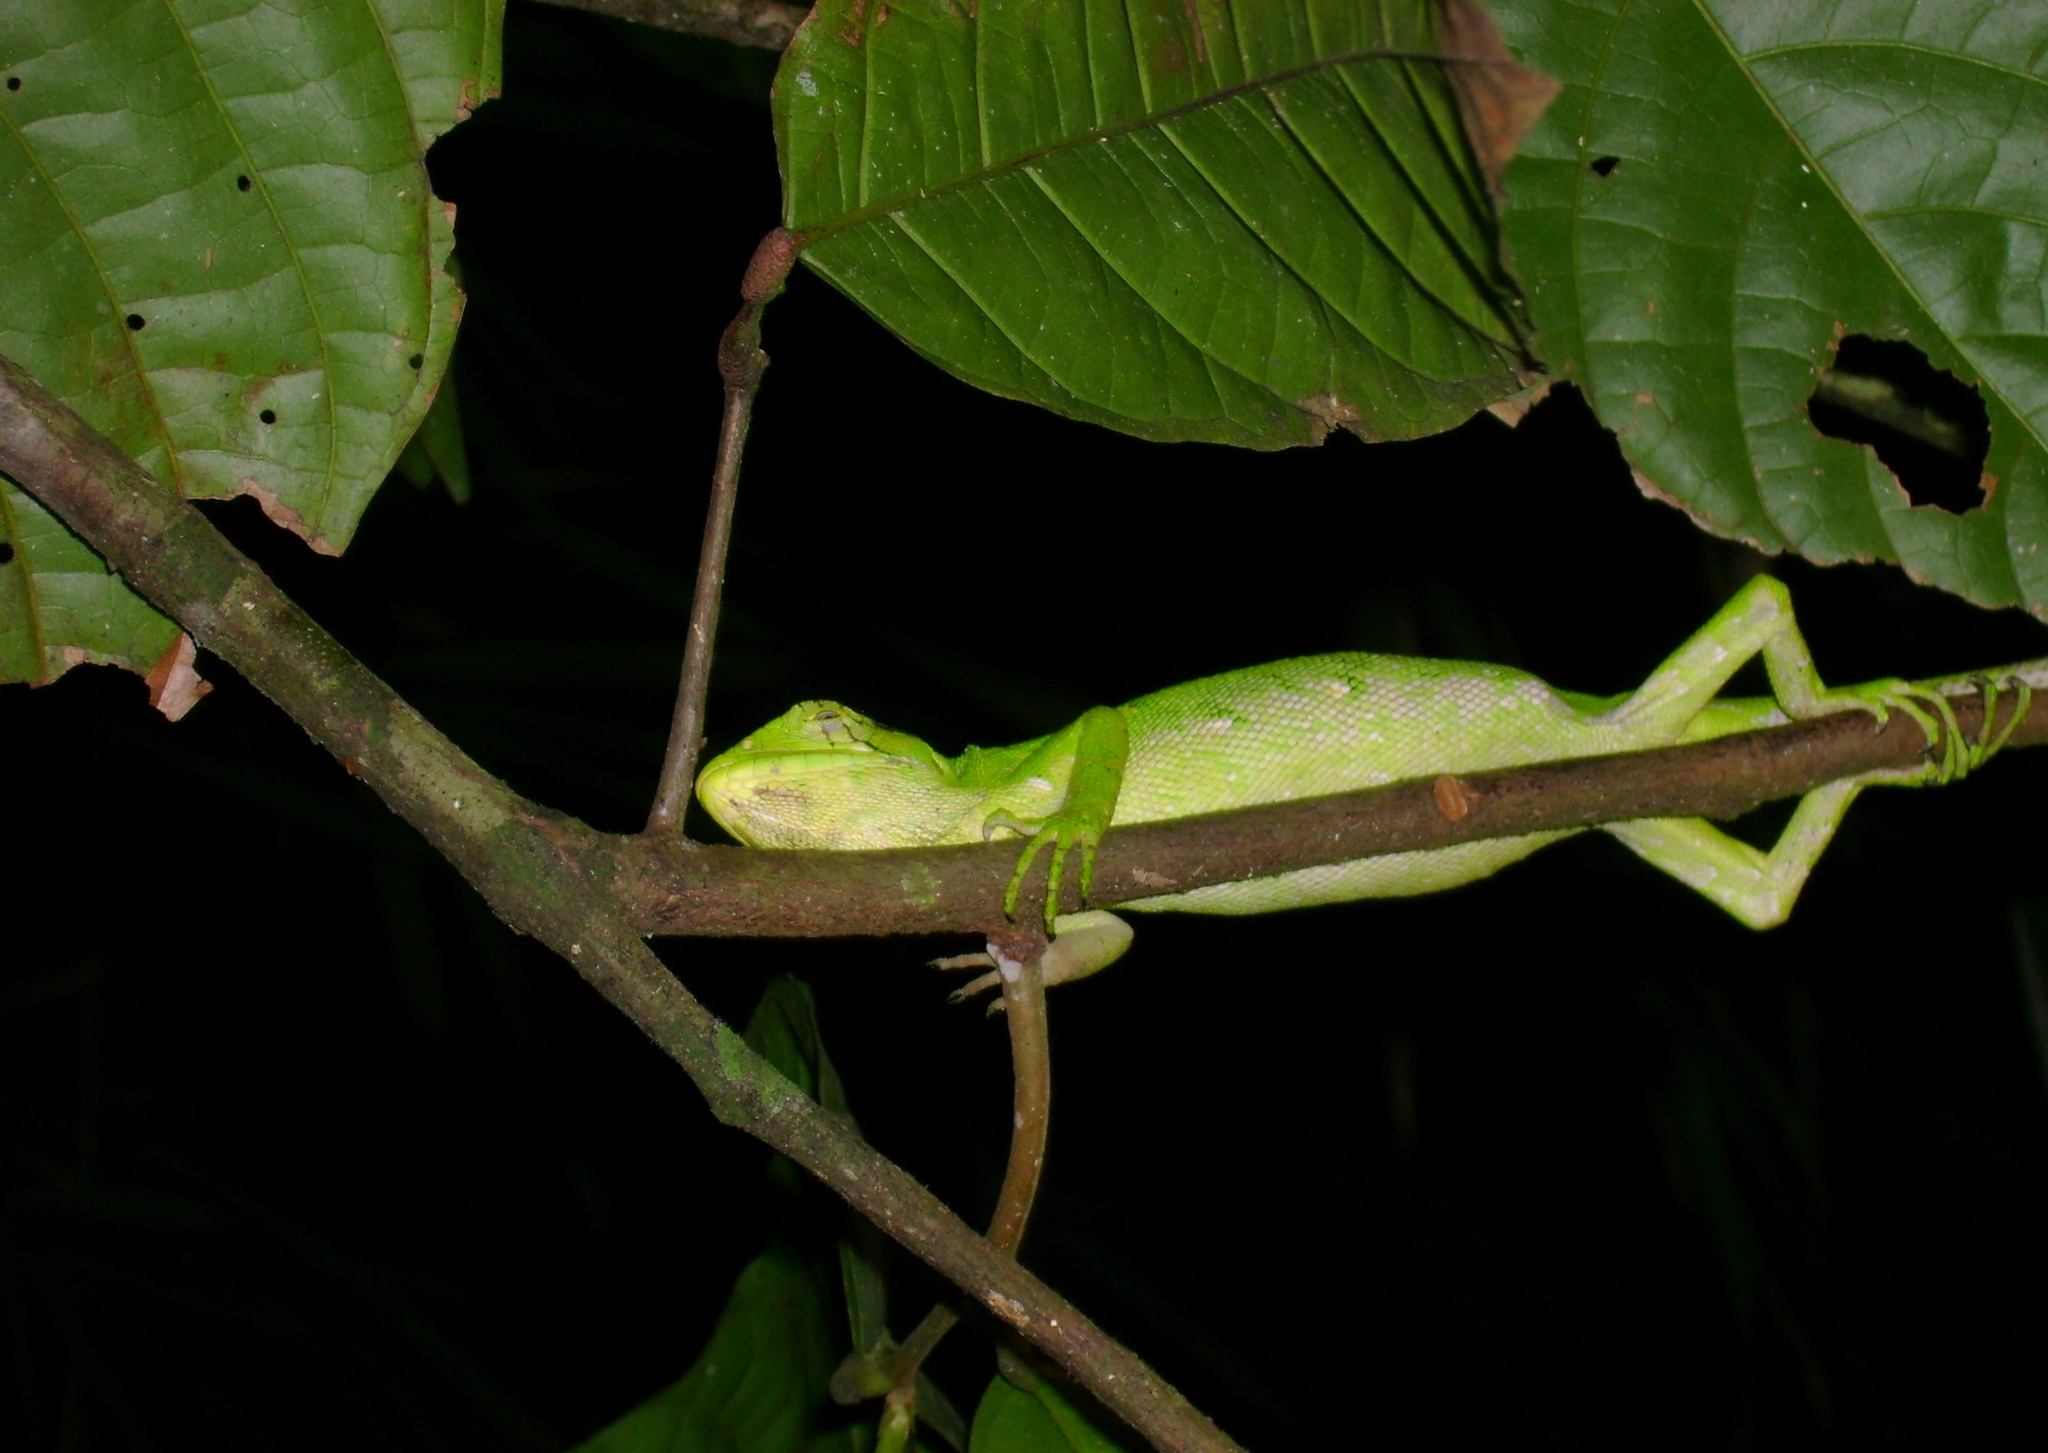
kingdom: Animalia
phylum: Chordata
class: Squamata
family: Polychrotidae
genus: Polychrus
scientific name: Polychrus auduboni
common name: Common monkey lizard
